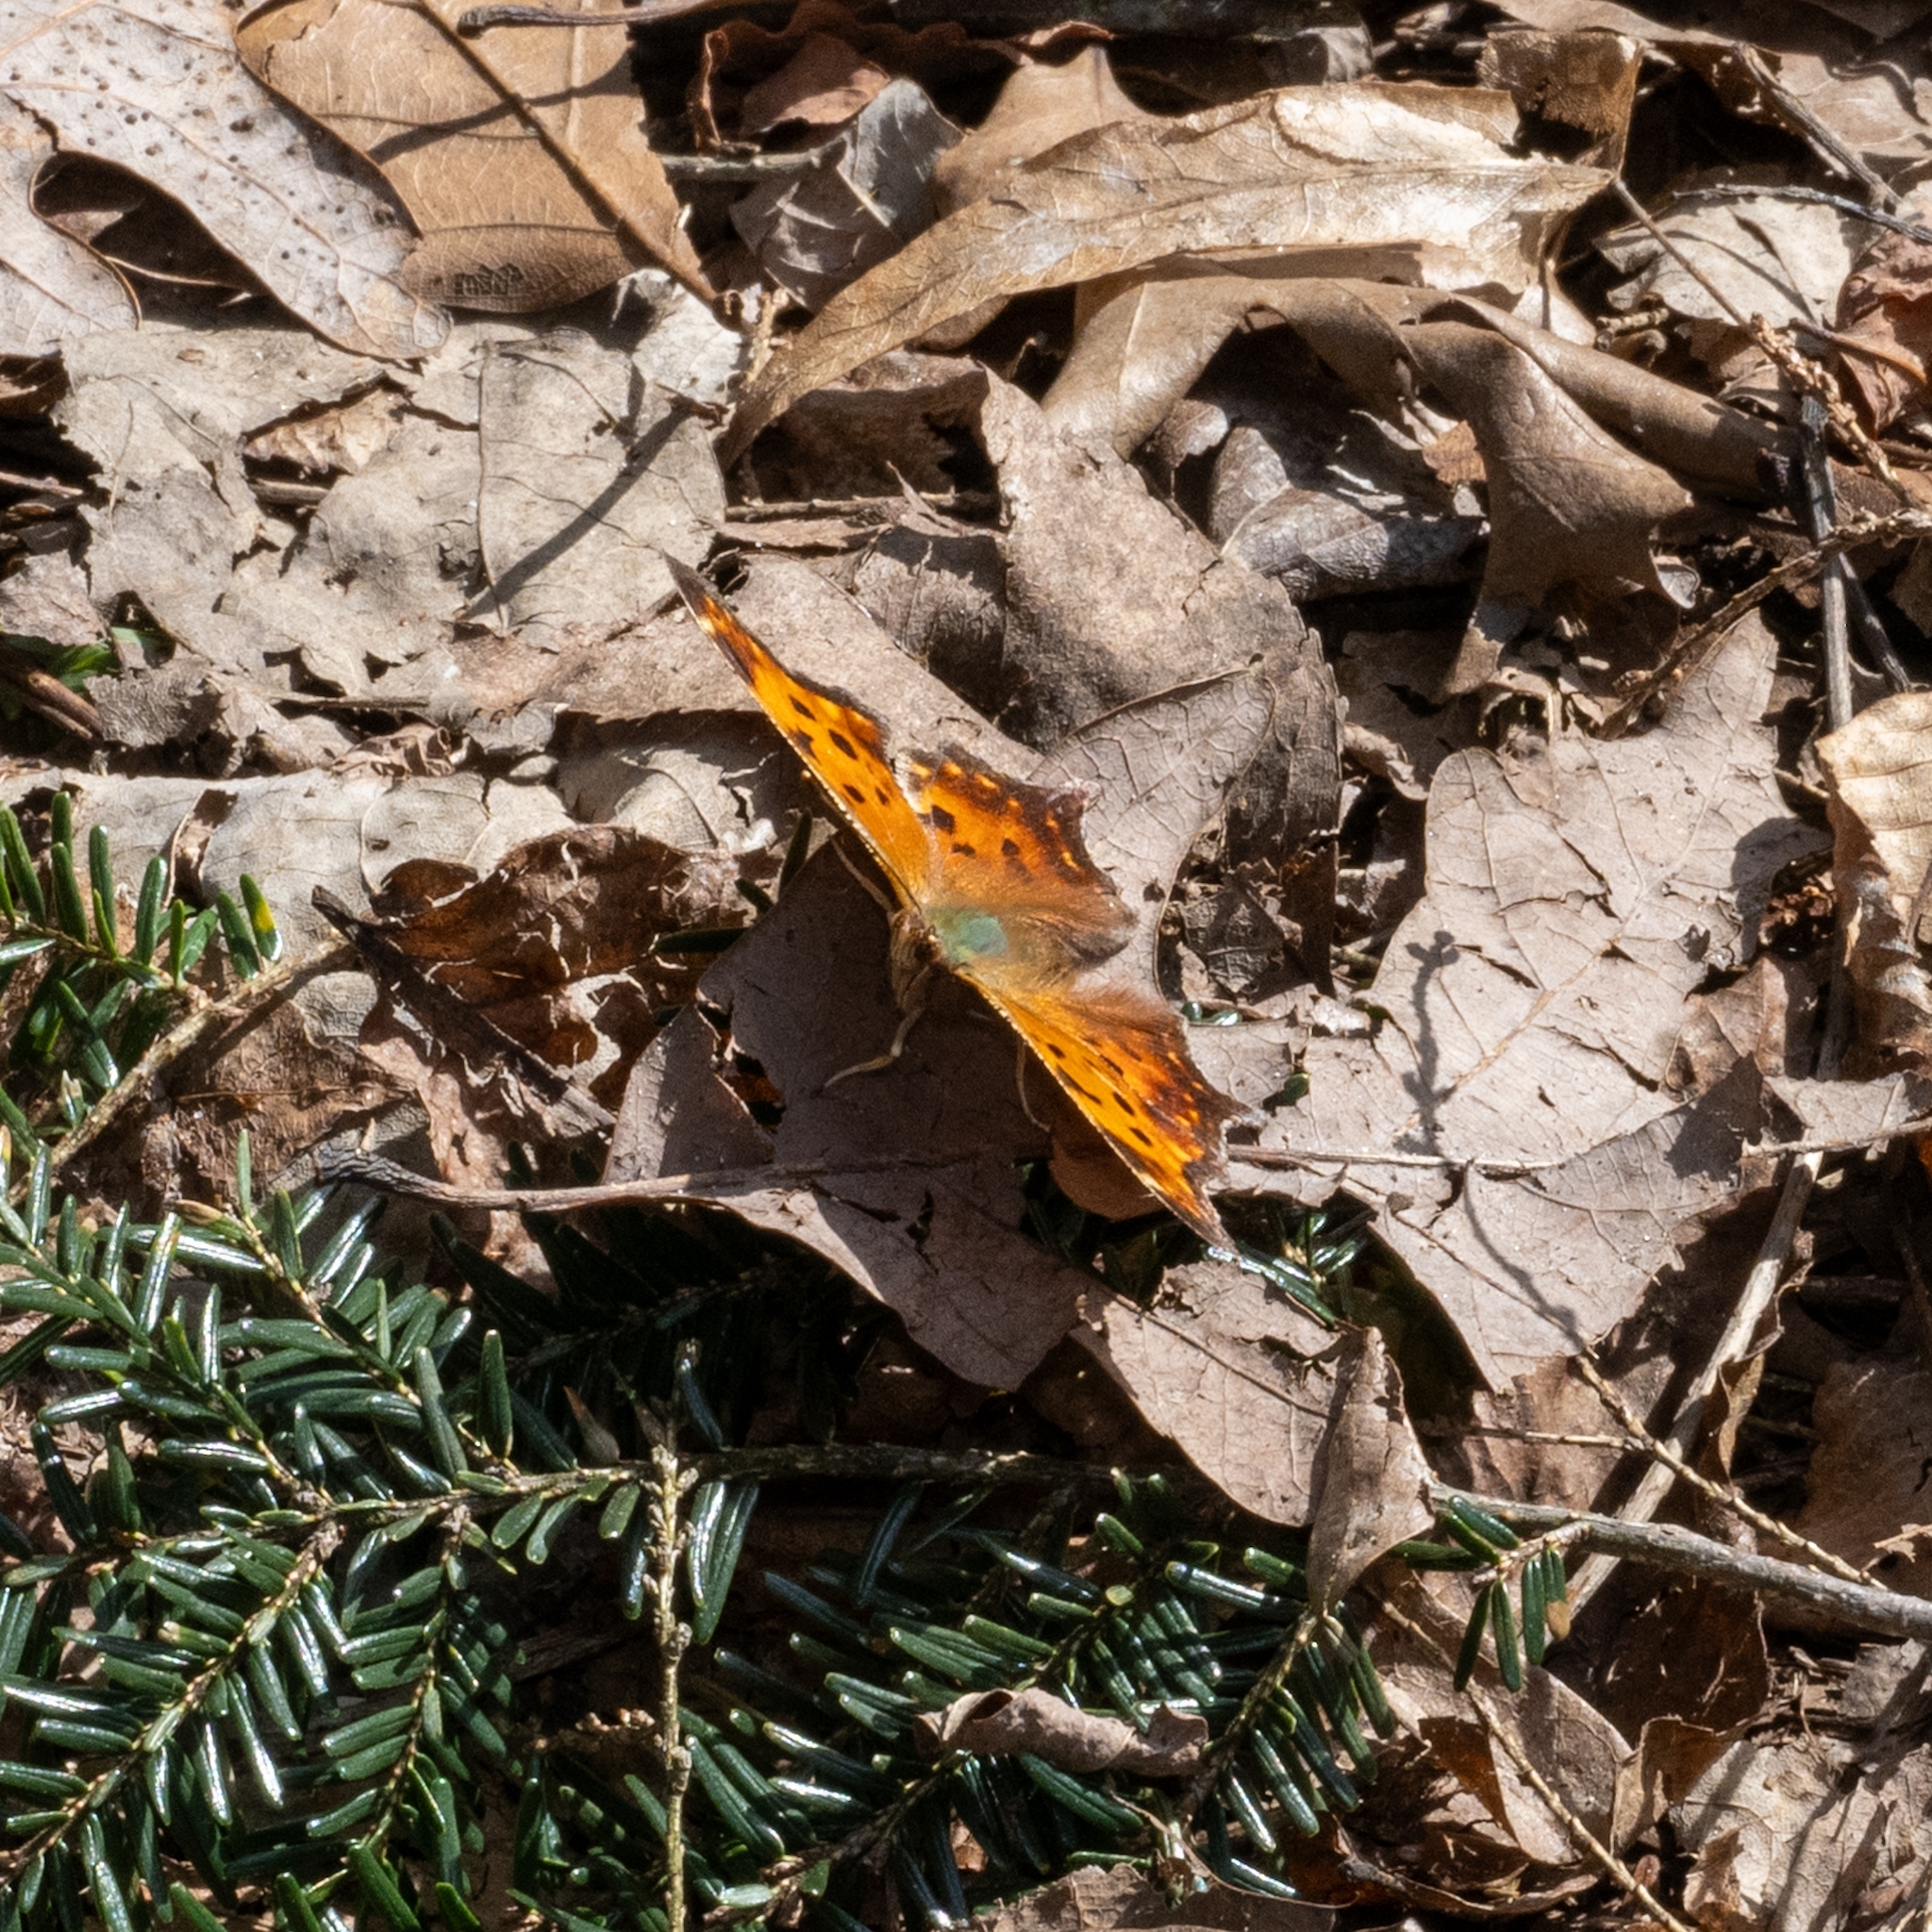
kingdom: Animalia
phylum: Arthropoda
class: Insecta
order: Lepidoptera
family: Nymphalidae
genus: Polygonia
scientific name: Polygonia comma
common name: Eastern comma
